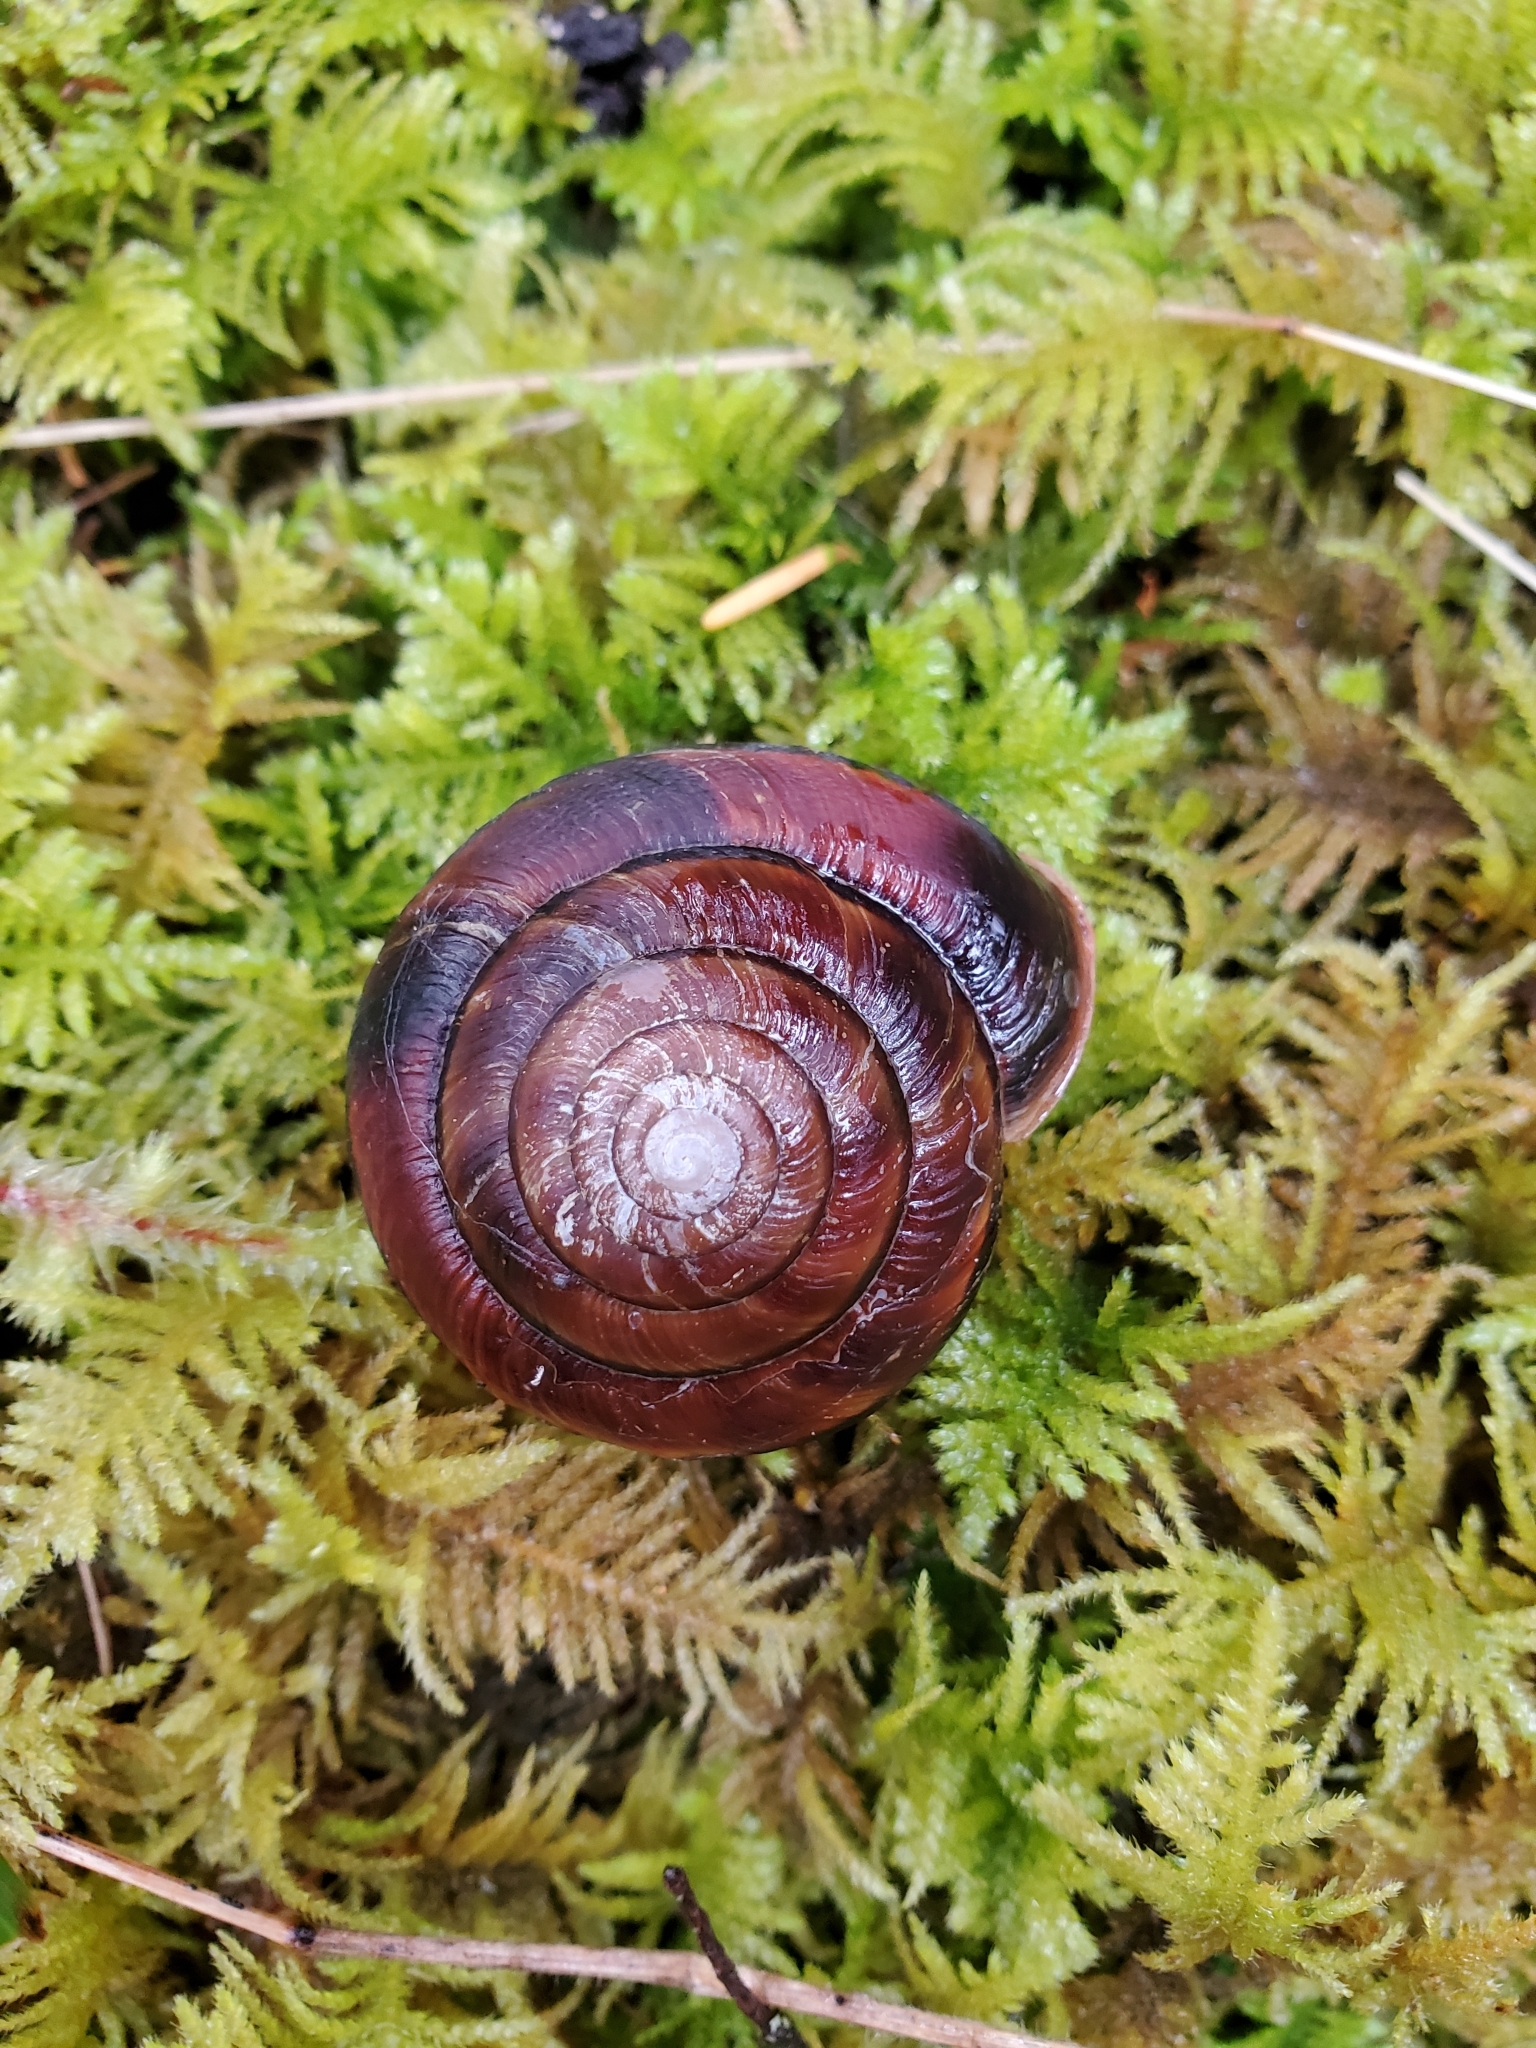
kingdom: Animalia
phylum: Mollusca
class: Gastropoda
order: Stylommatophora
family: Xanthonychidae
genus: Monadenia
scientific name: Monadenia fidelis
